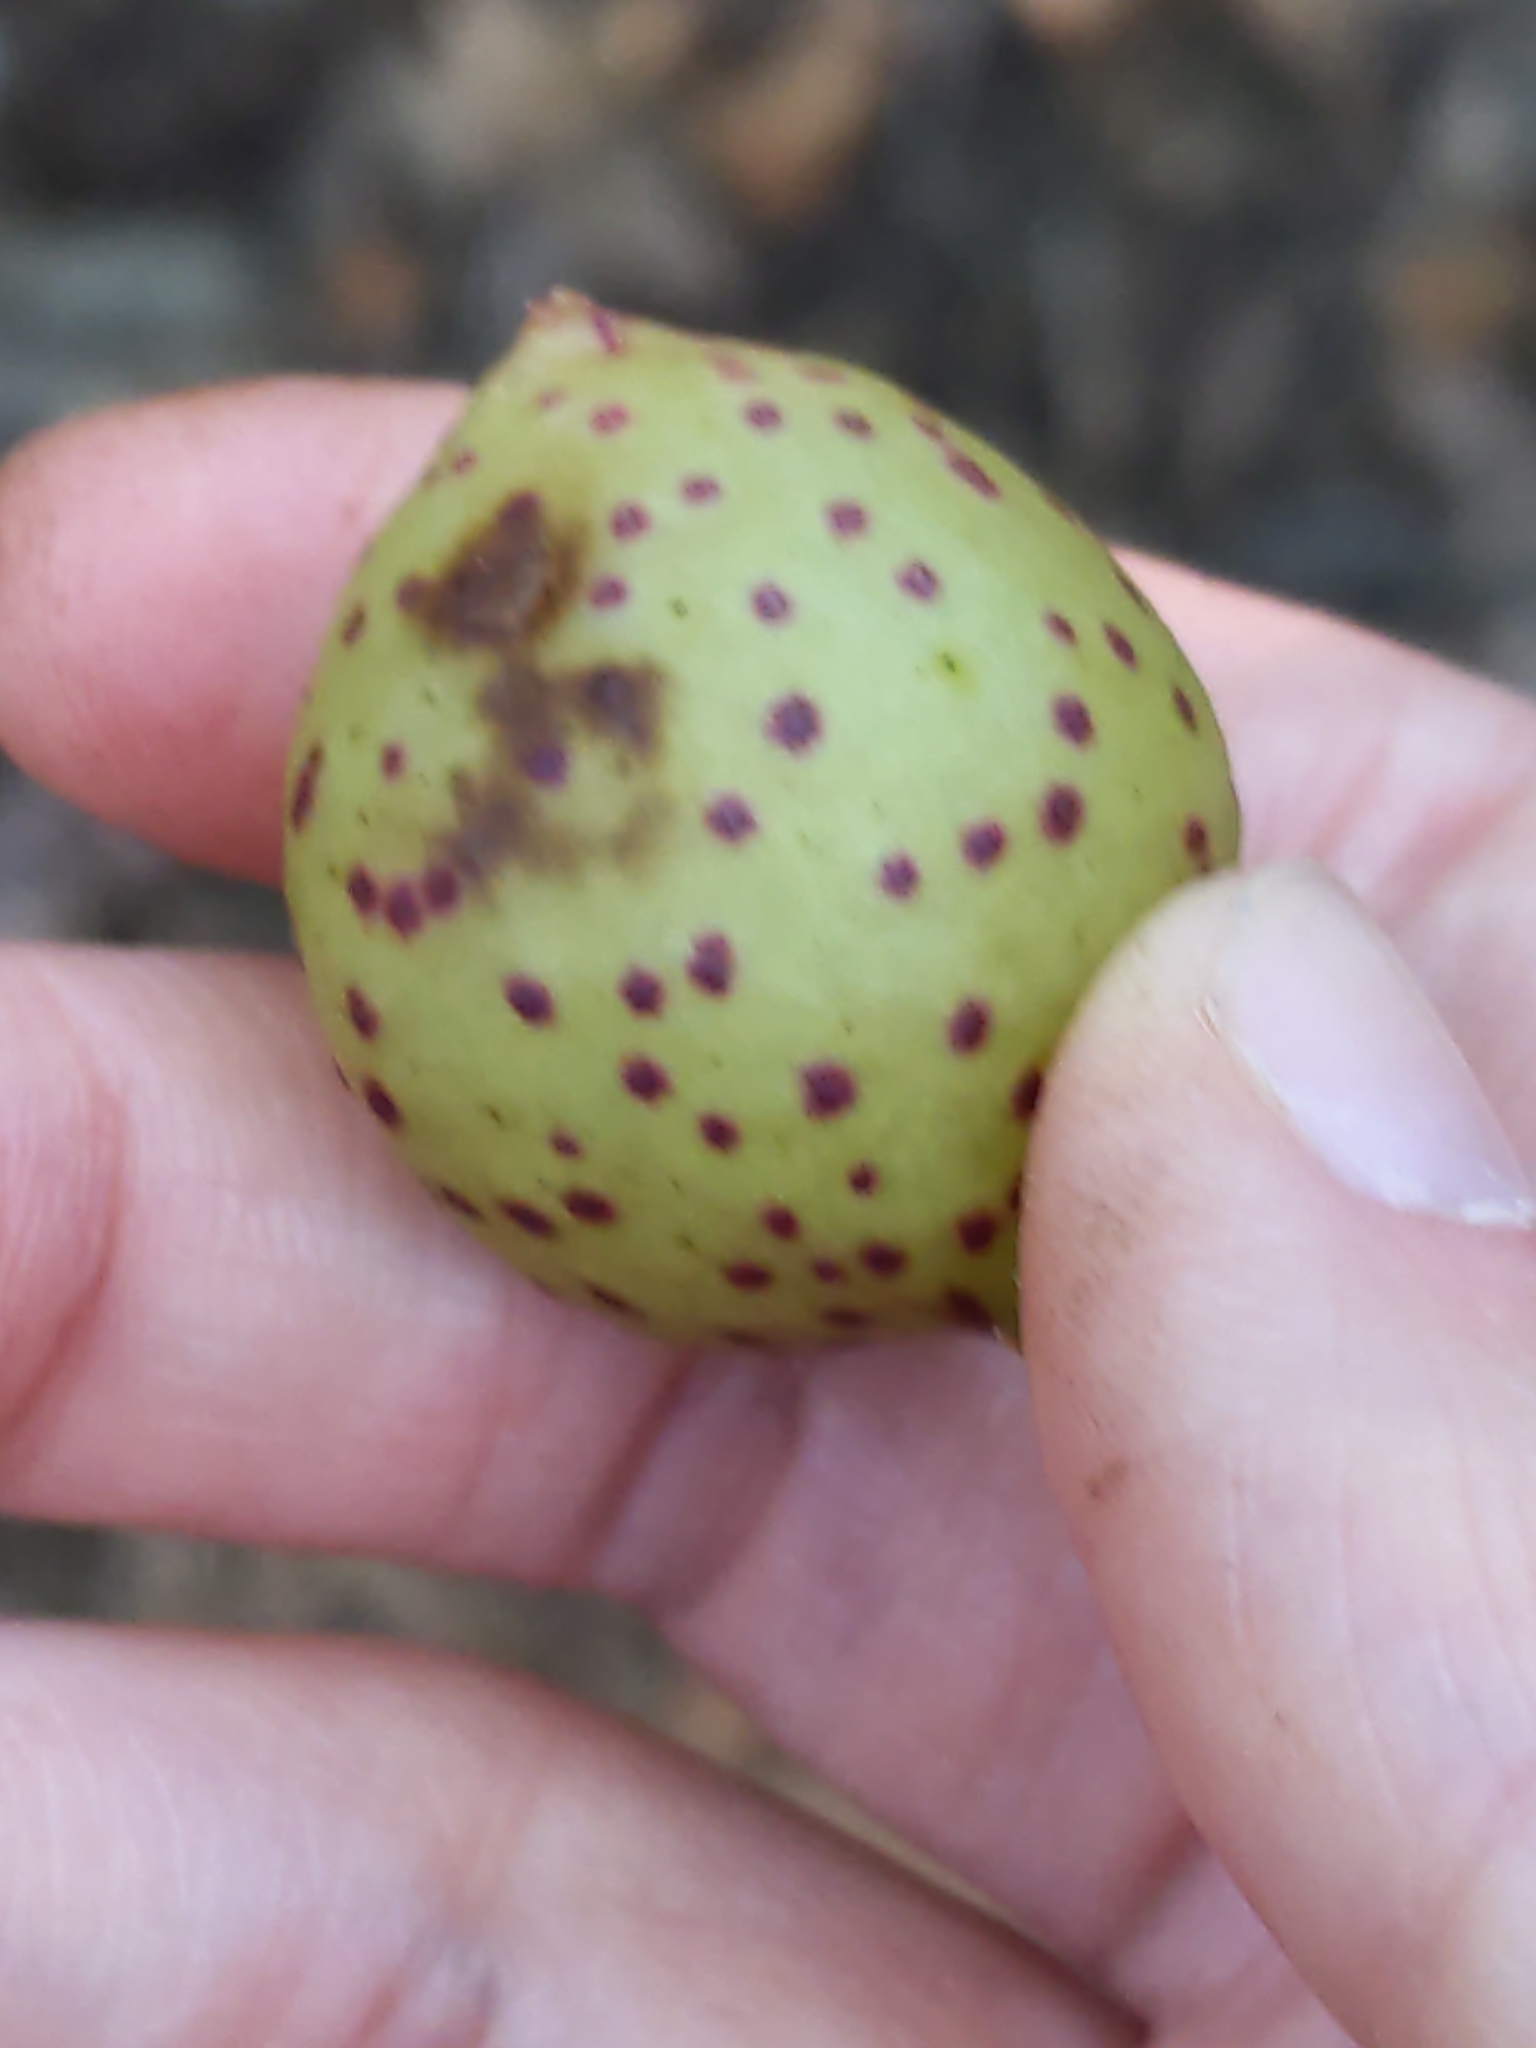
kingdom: Animalia
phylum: Arthropoda
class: Insecta
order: Hymenoptera
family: Cynipidae
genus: Amphibolips
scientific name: Amphibolips
